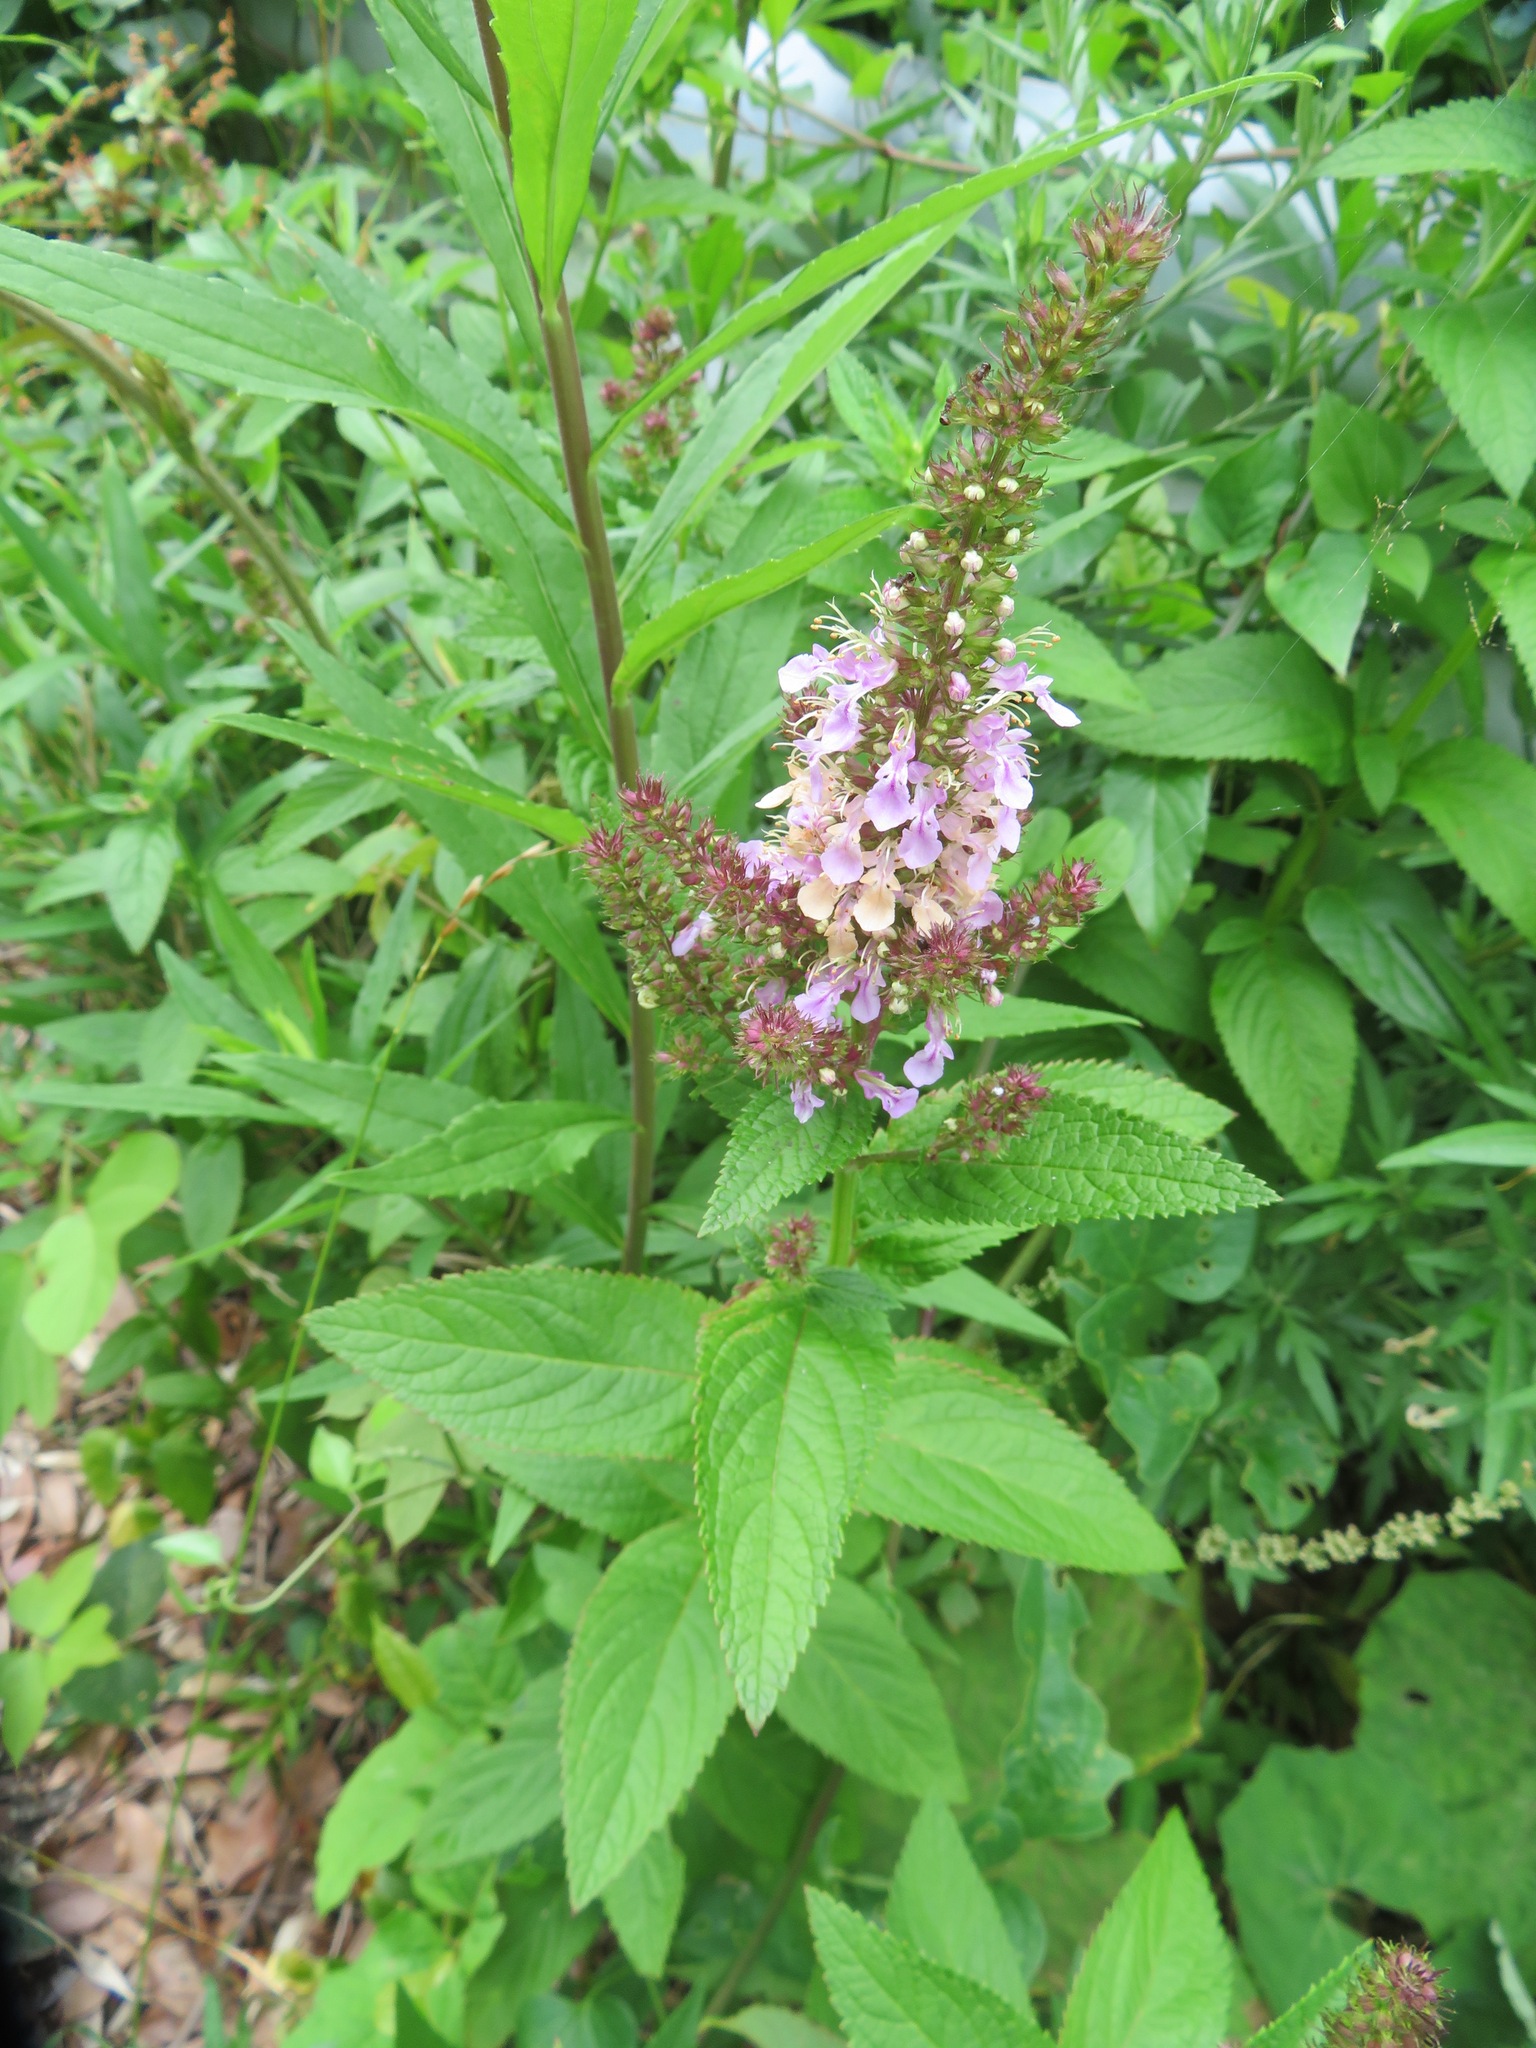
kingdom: Plantae
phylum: Tracheophyta
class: Magnoliopsida
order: Lamiales
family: Lamiaceae
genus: Teucrium
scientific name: Teucrium japonicum
